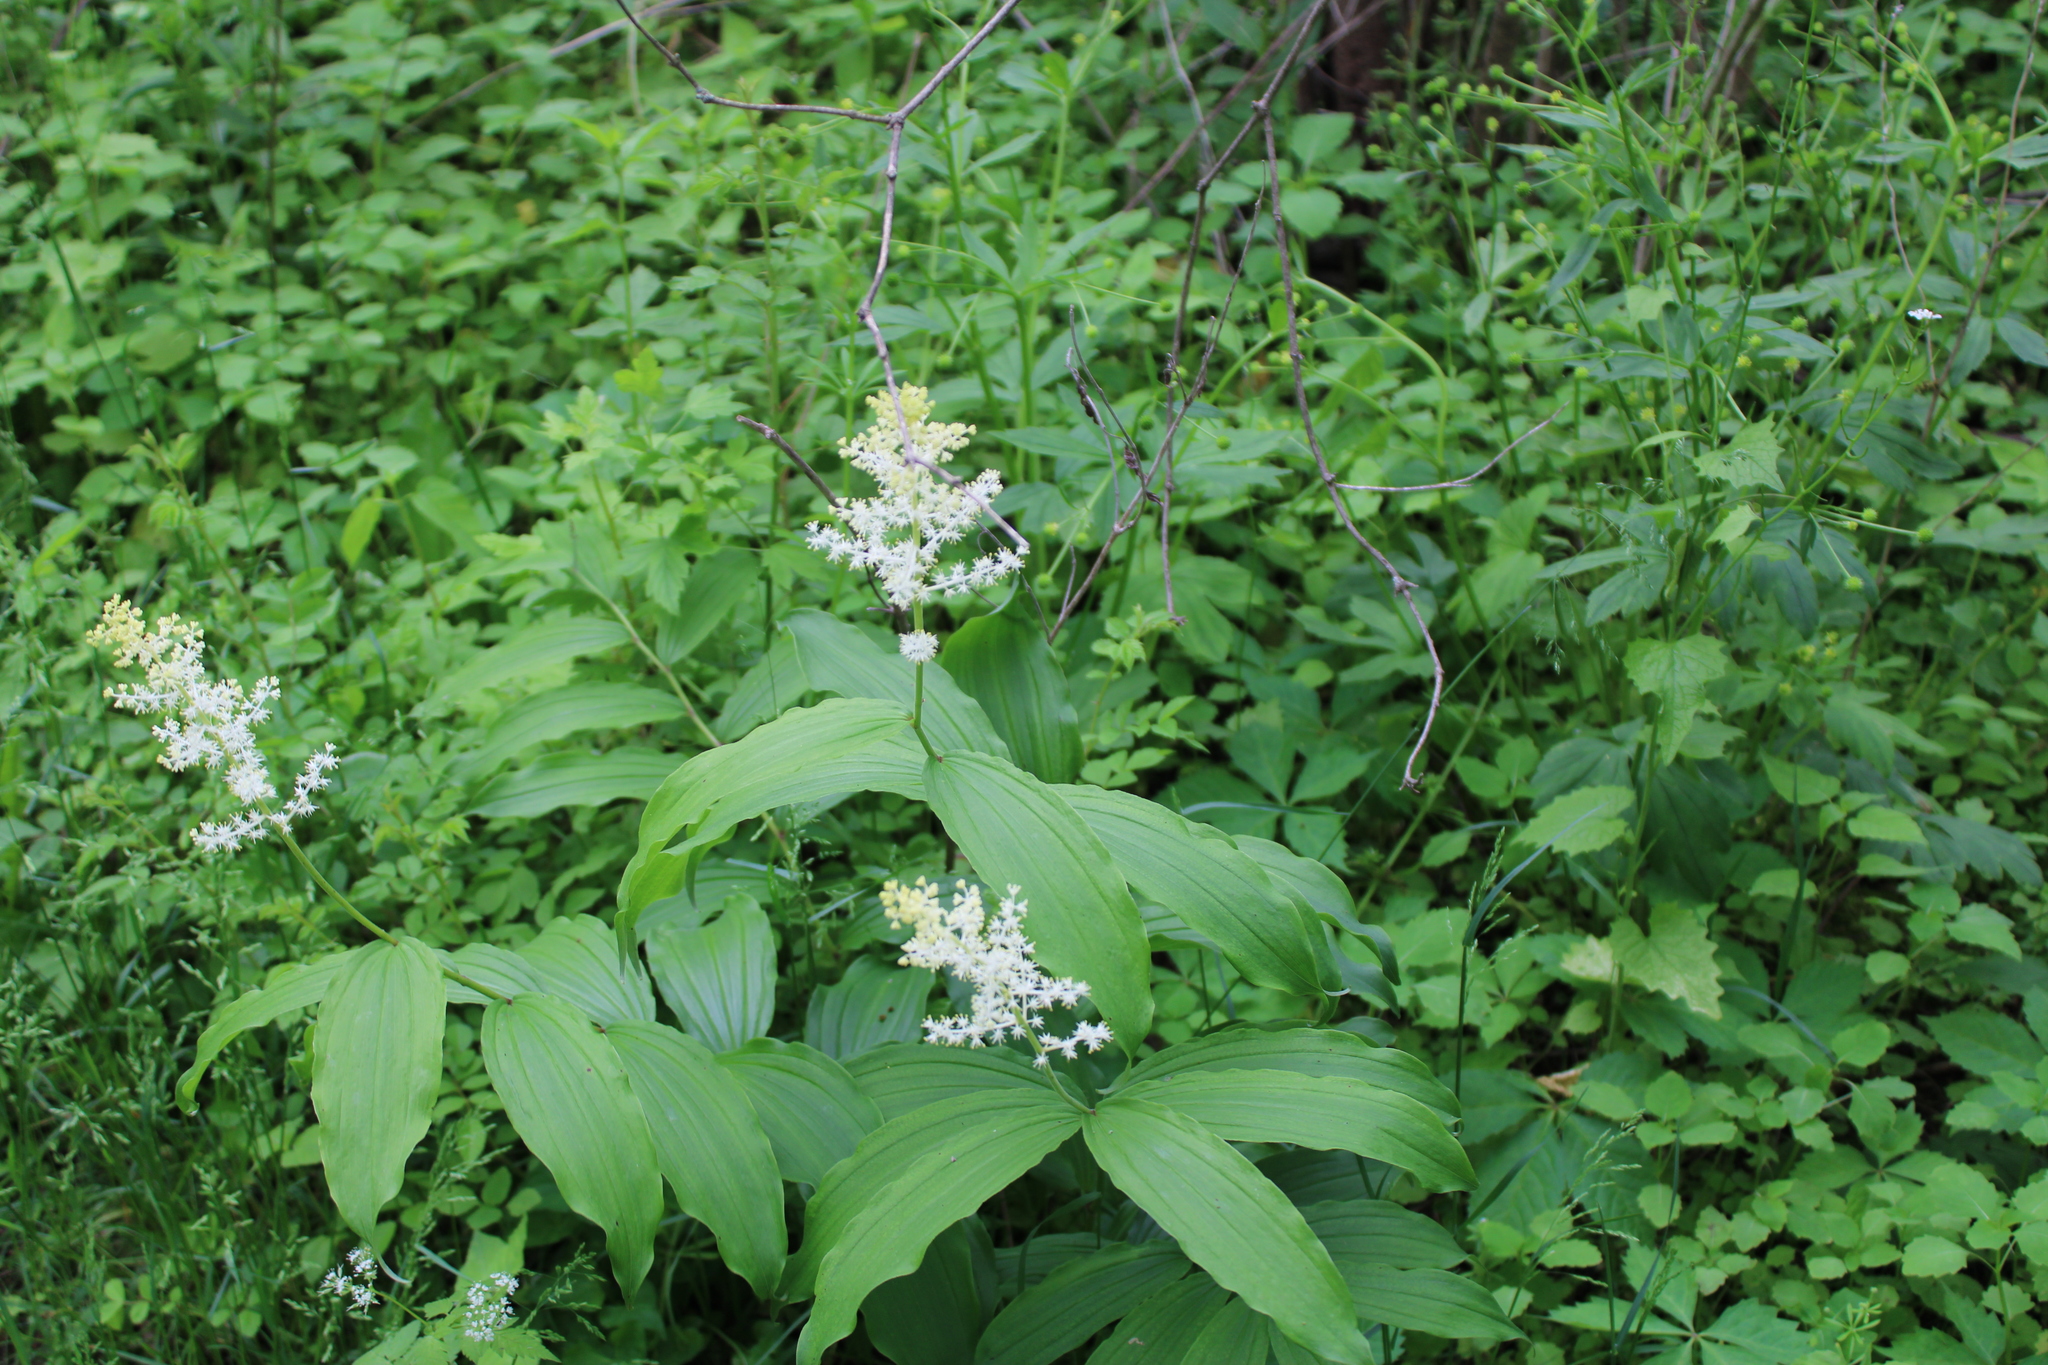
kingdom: Plantae
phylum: Tracheophyta
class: Liliopsida
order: Asparagales
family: Asparagaceae
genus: Maianthemum
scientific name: Maianthemum racemosum
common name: False spikenard
